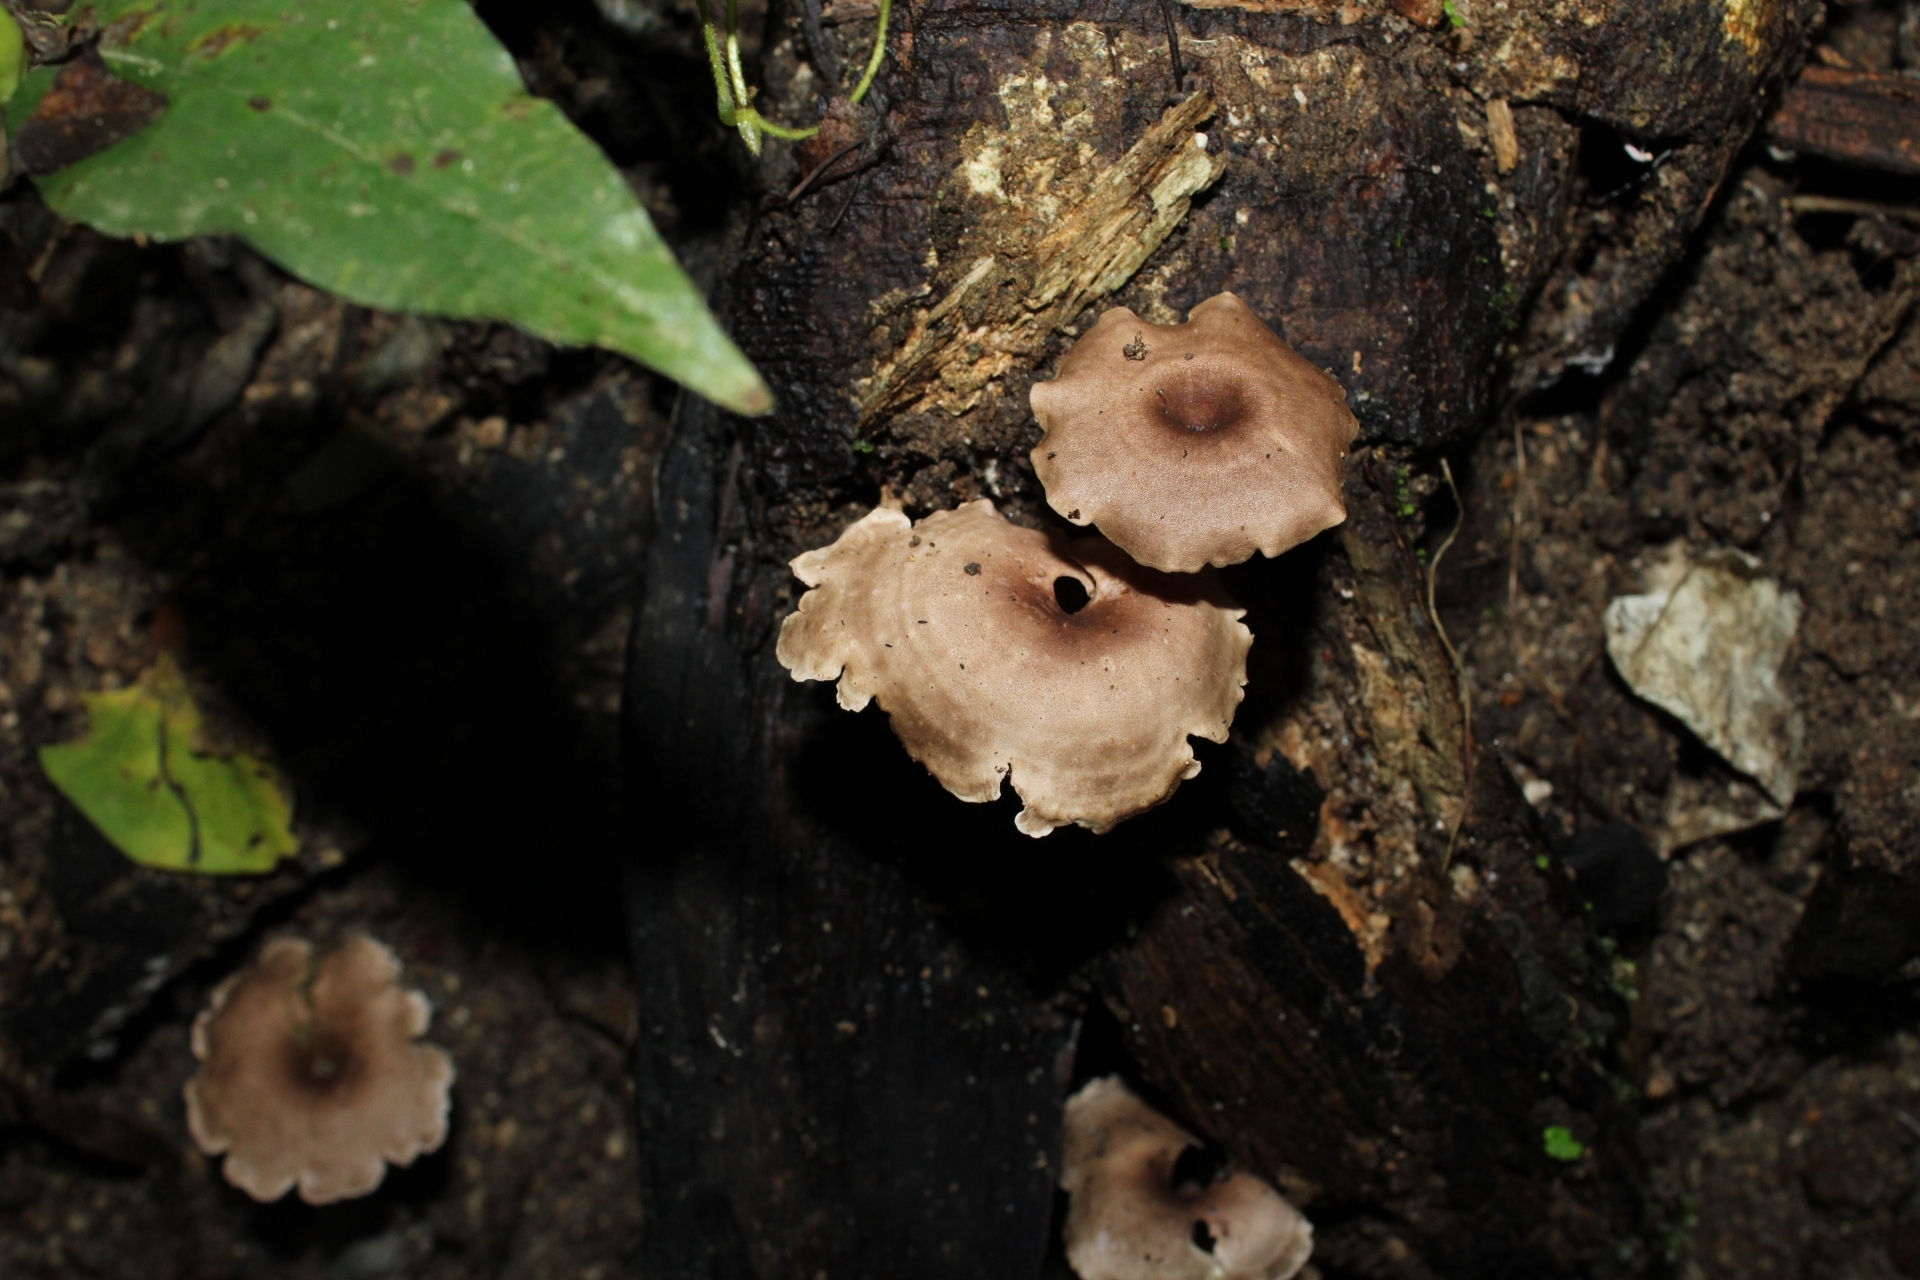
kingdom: Fungi
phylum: Basidiomycota
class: Agaricomycetes
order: Agaricales
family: Marasmiaceae
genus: Trogia
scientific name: Trogia cantharelloides
